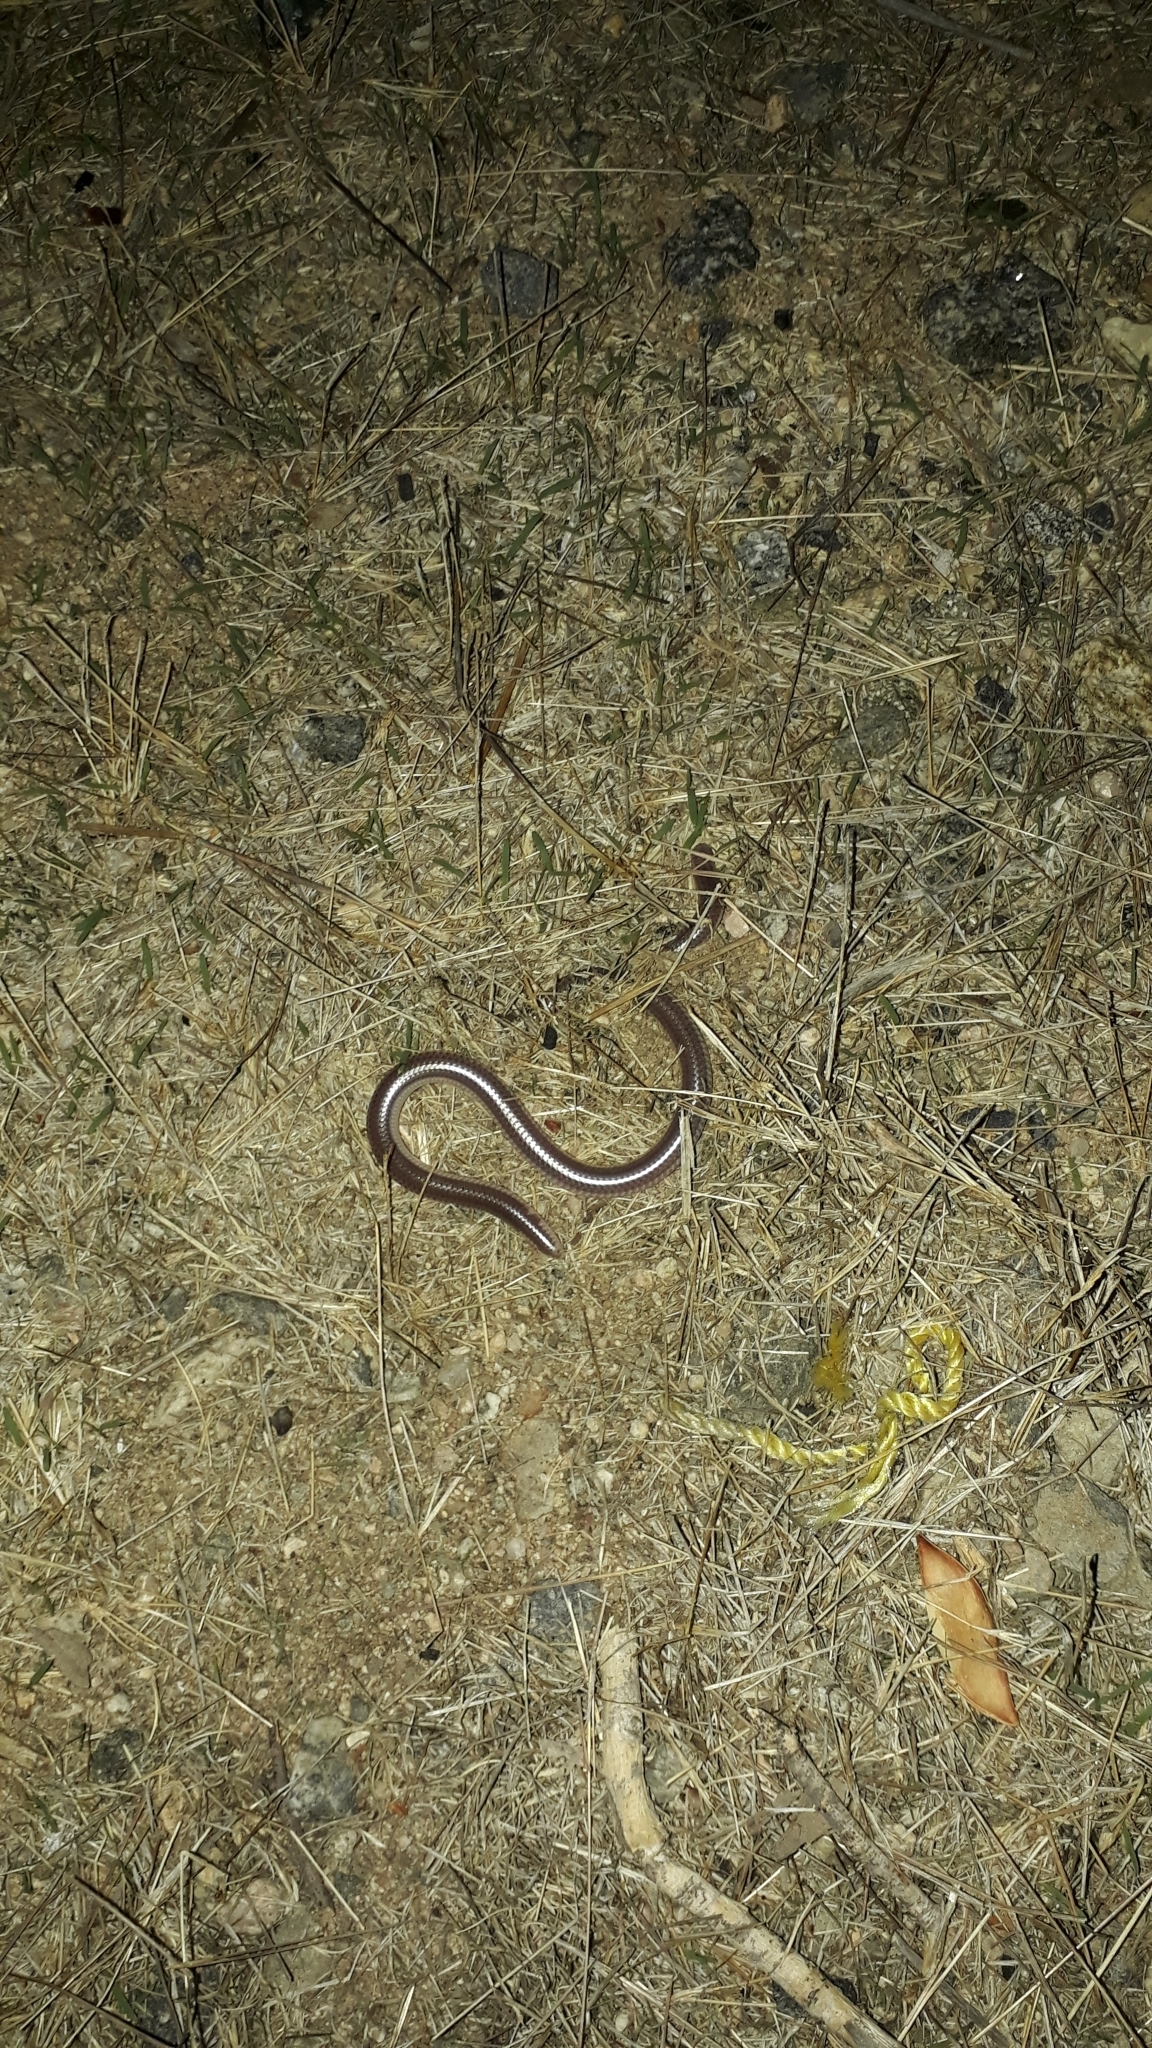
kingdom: Animalia
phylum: Chordata
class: Squamata
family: Leptotyphlopidae
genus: Rena
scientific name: Rena humilis
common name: Western threadsnake
